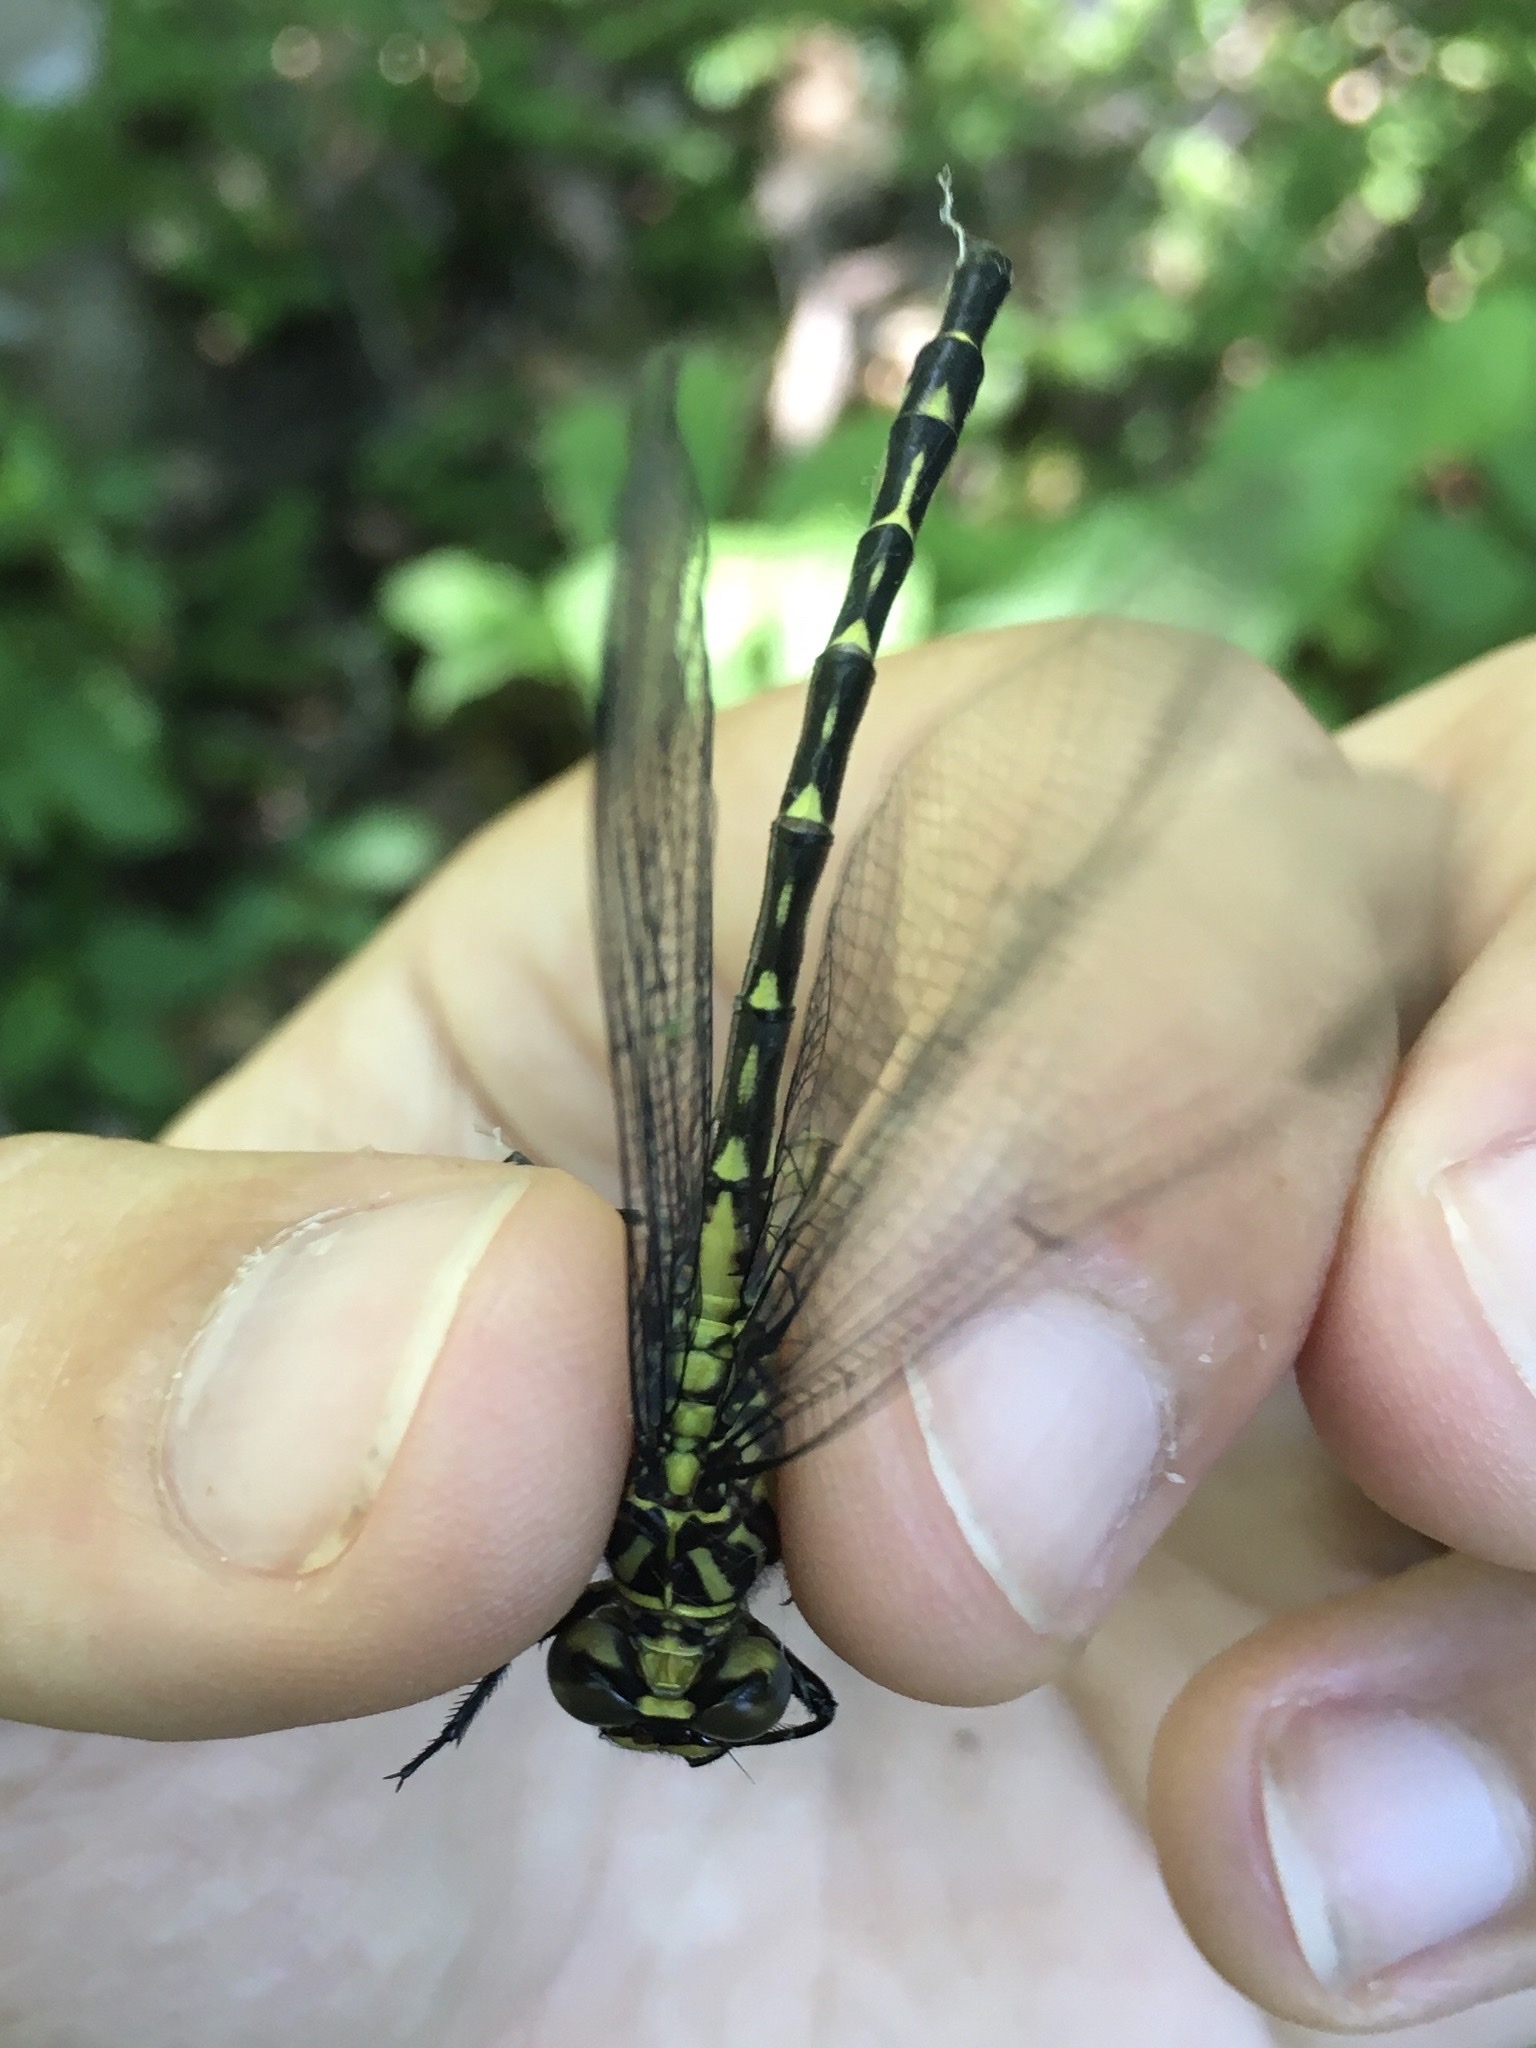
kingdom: Animalia
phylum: Arthropoda
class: Insecta
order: Odonata
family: Gomphidae
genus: Stylurus
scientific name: Stylurus notatus
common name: Elusive clubtail
